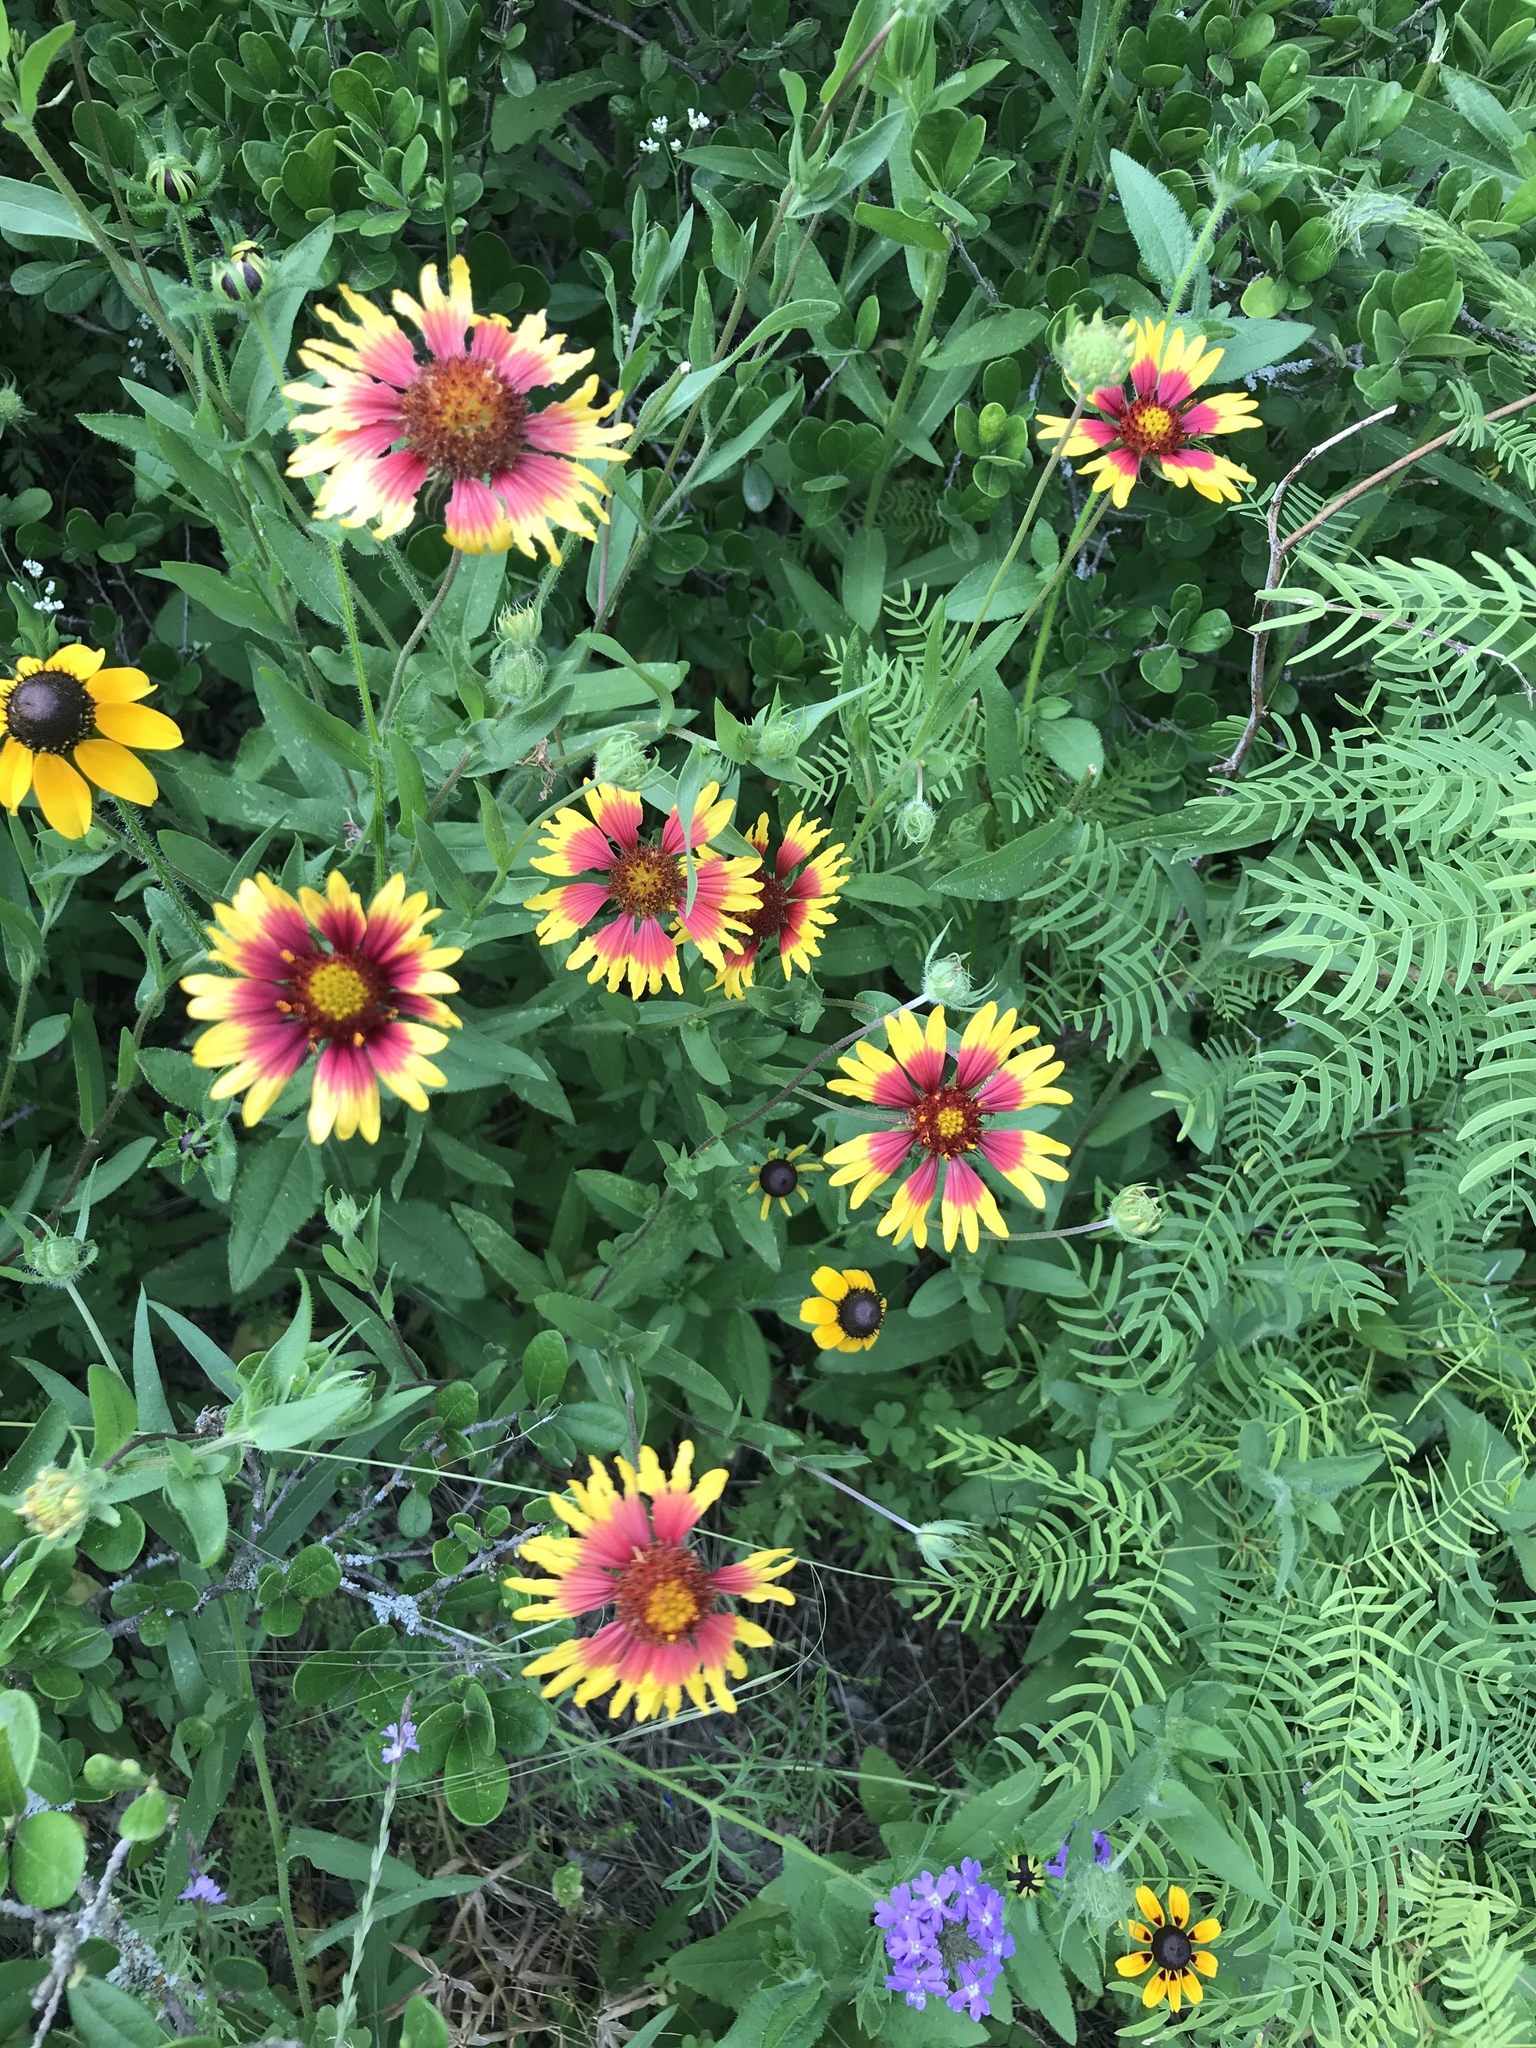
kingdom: Plantae
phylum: Tracheophyta
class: Magnoliopsida
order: Asterales
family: Asteraceae
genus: Gaillardia
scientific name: Gaillardia pulchella
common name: Firewheel
